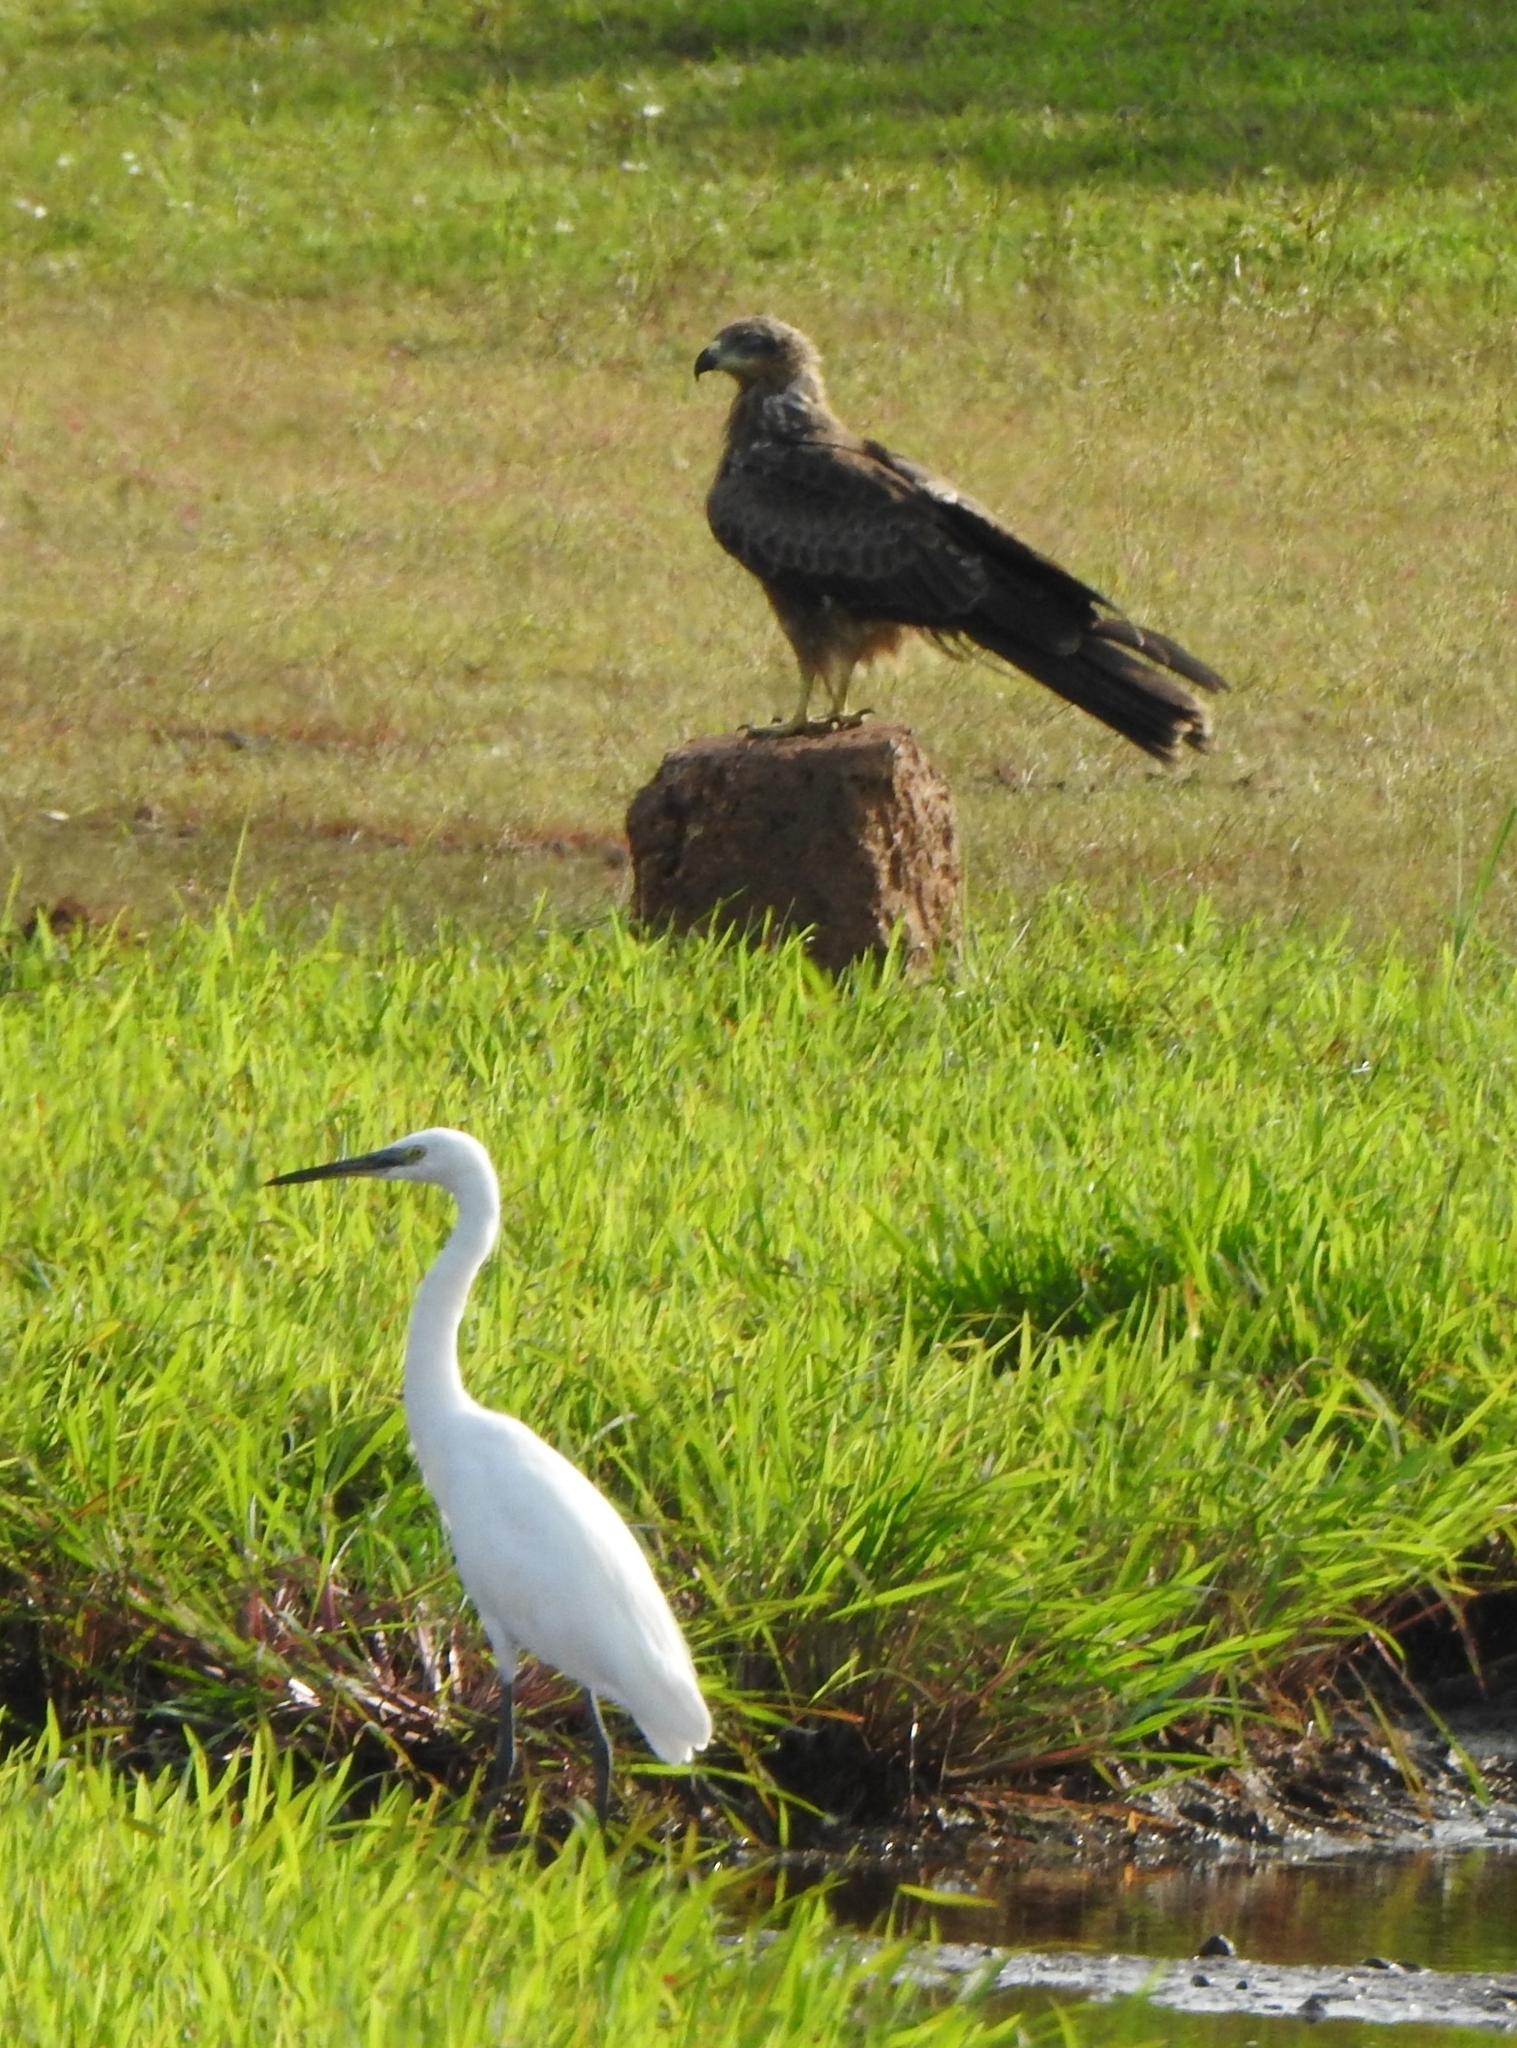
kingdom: Animalia
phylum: Chordata
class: Aves
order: Pelecaniformes
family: Ardeidae
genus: Egretta
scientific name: Egretta garzetta
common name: Little egret
